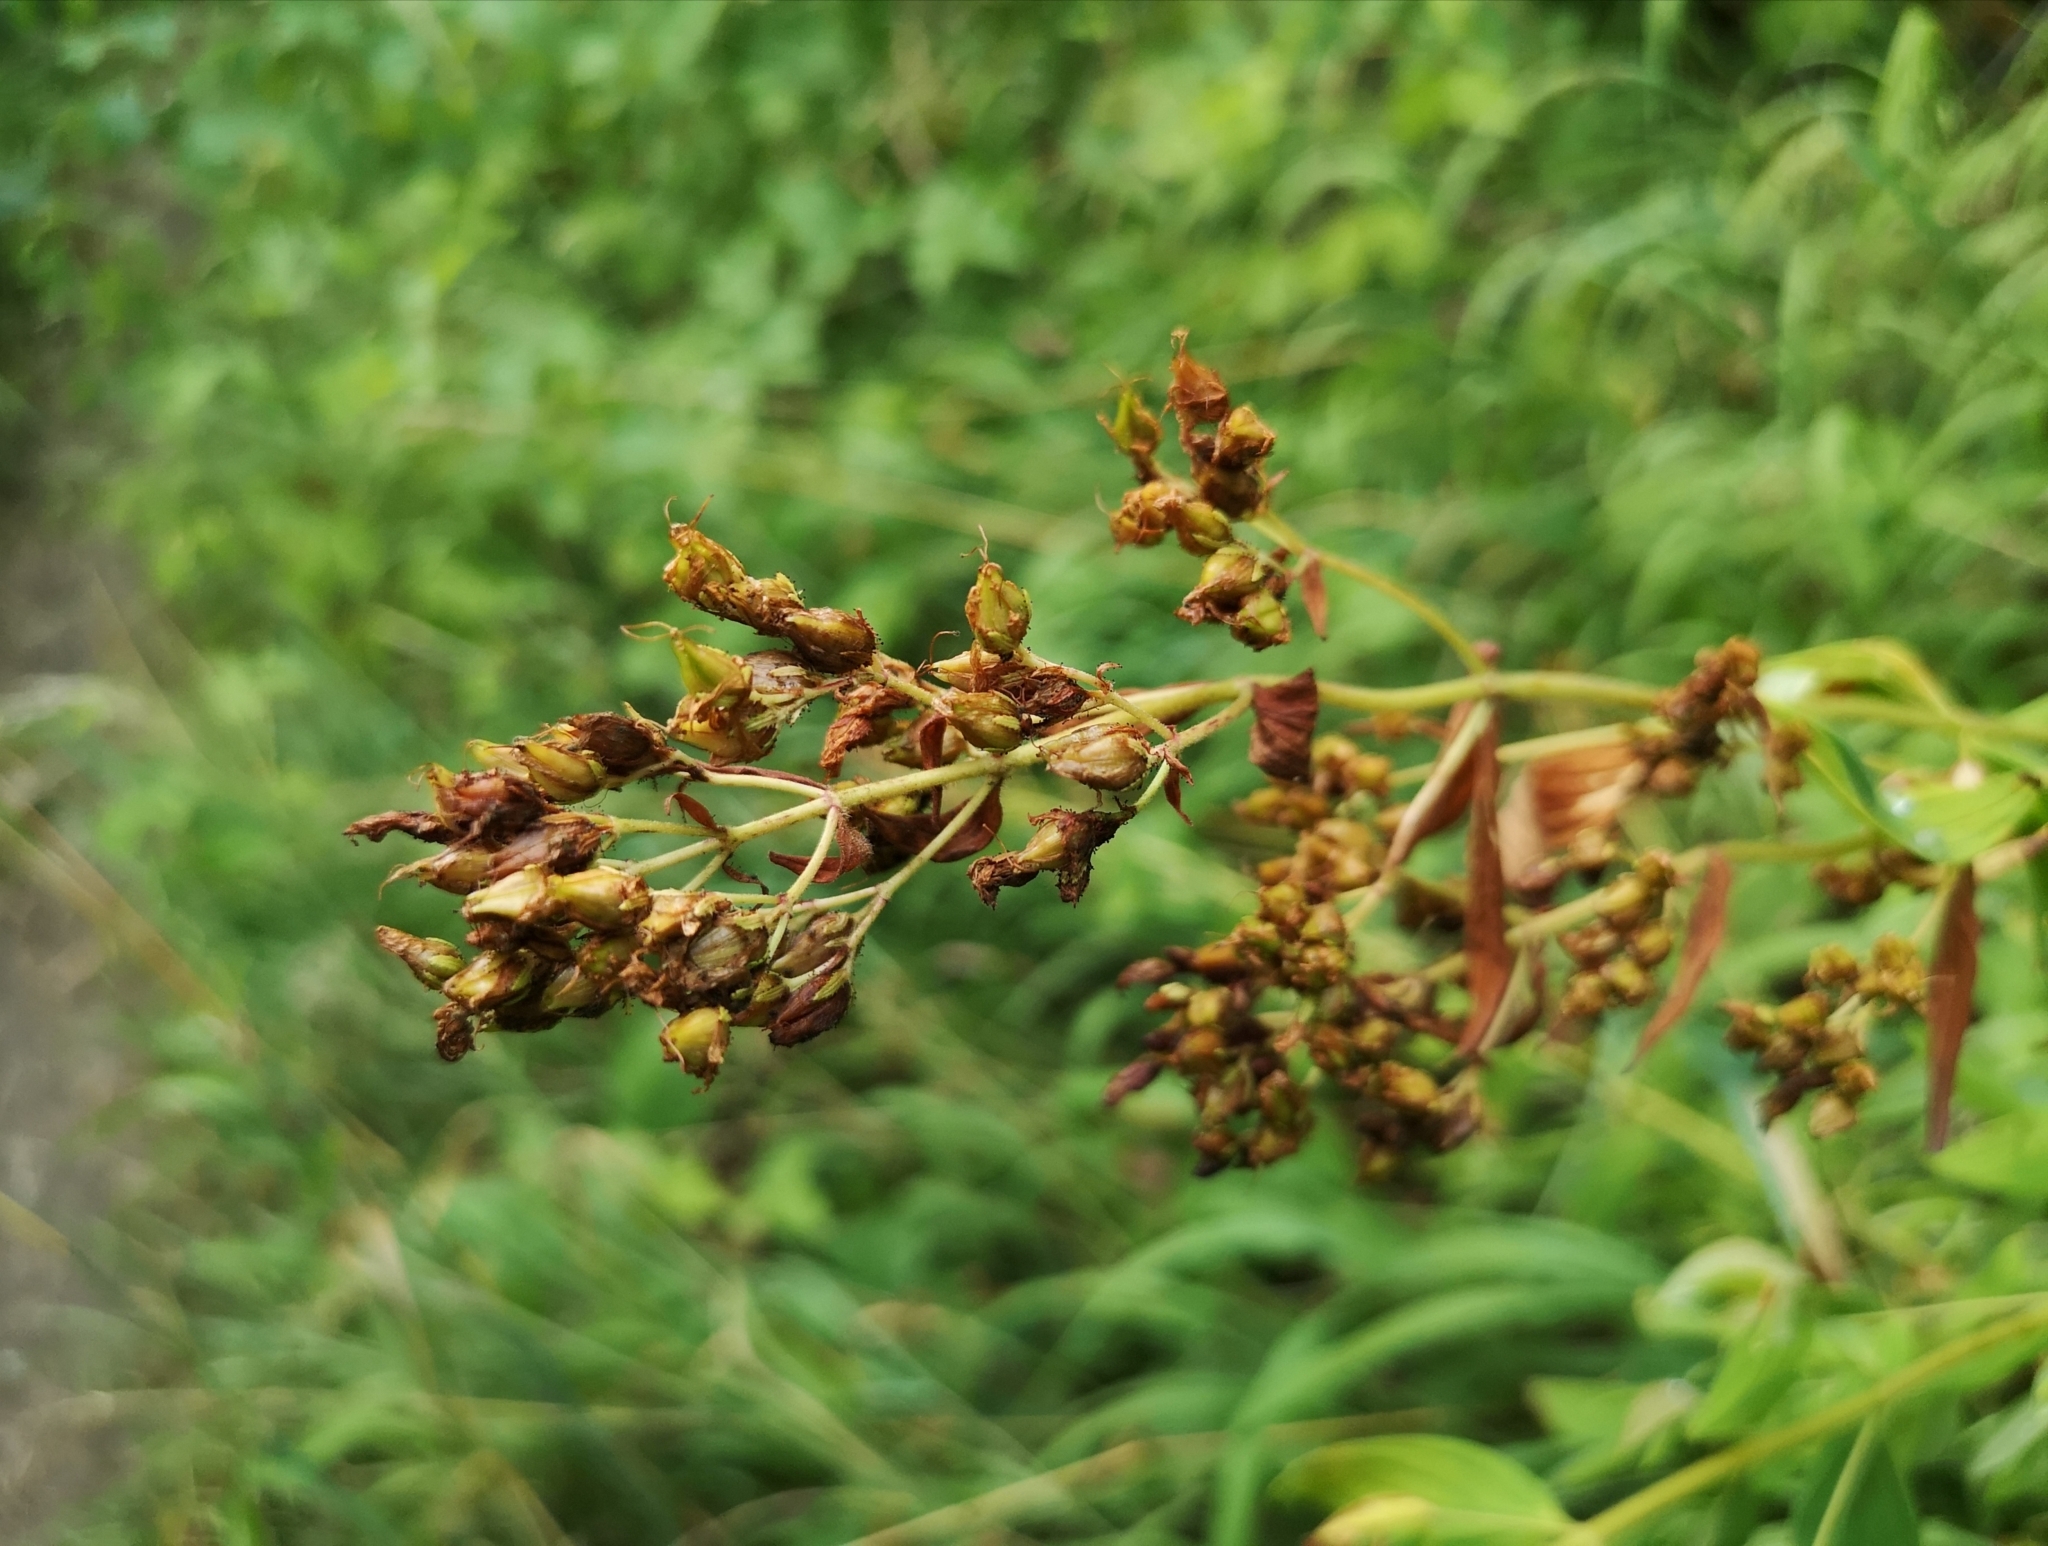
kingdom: Plantae
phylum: Tracheophyta
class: Magnoliopsida
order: Malpighiales
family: Hypericaceae
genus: Hypericum
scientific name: Hypericum hirsutum
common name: Hairy st. john's-wort
